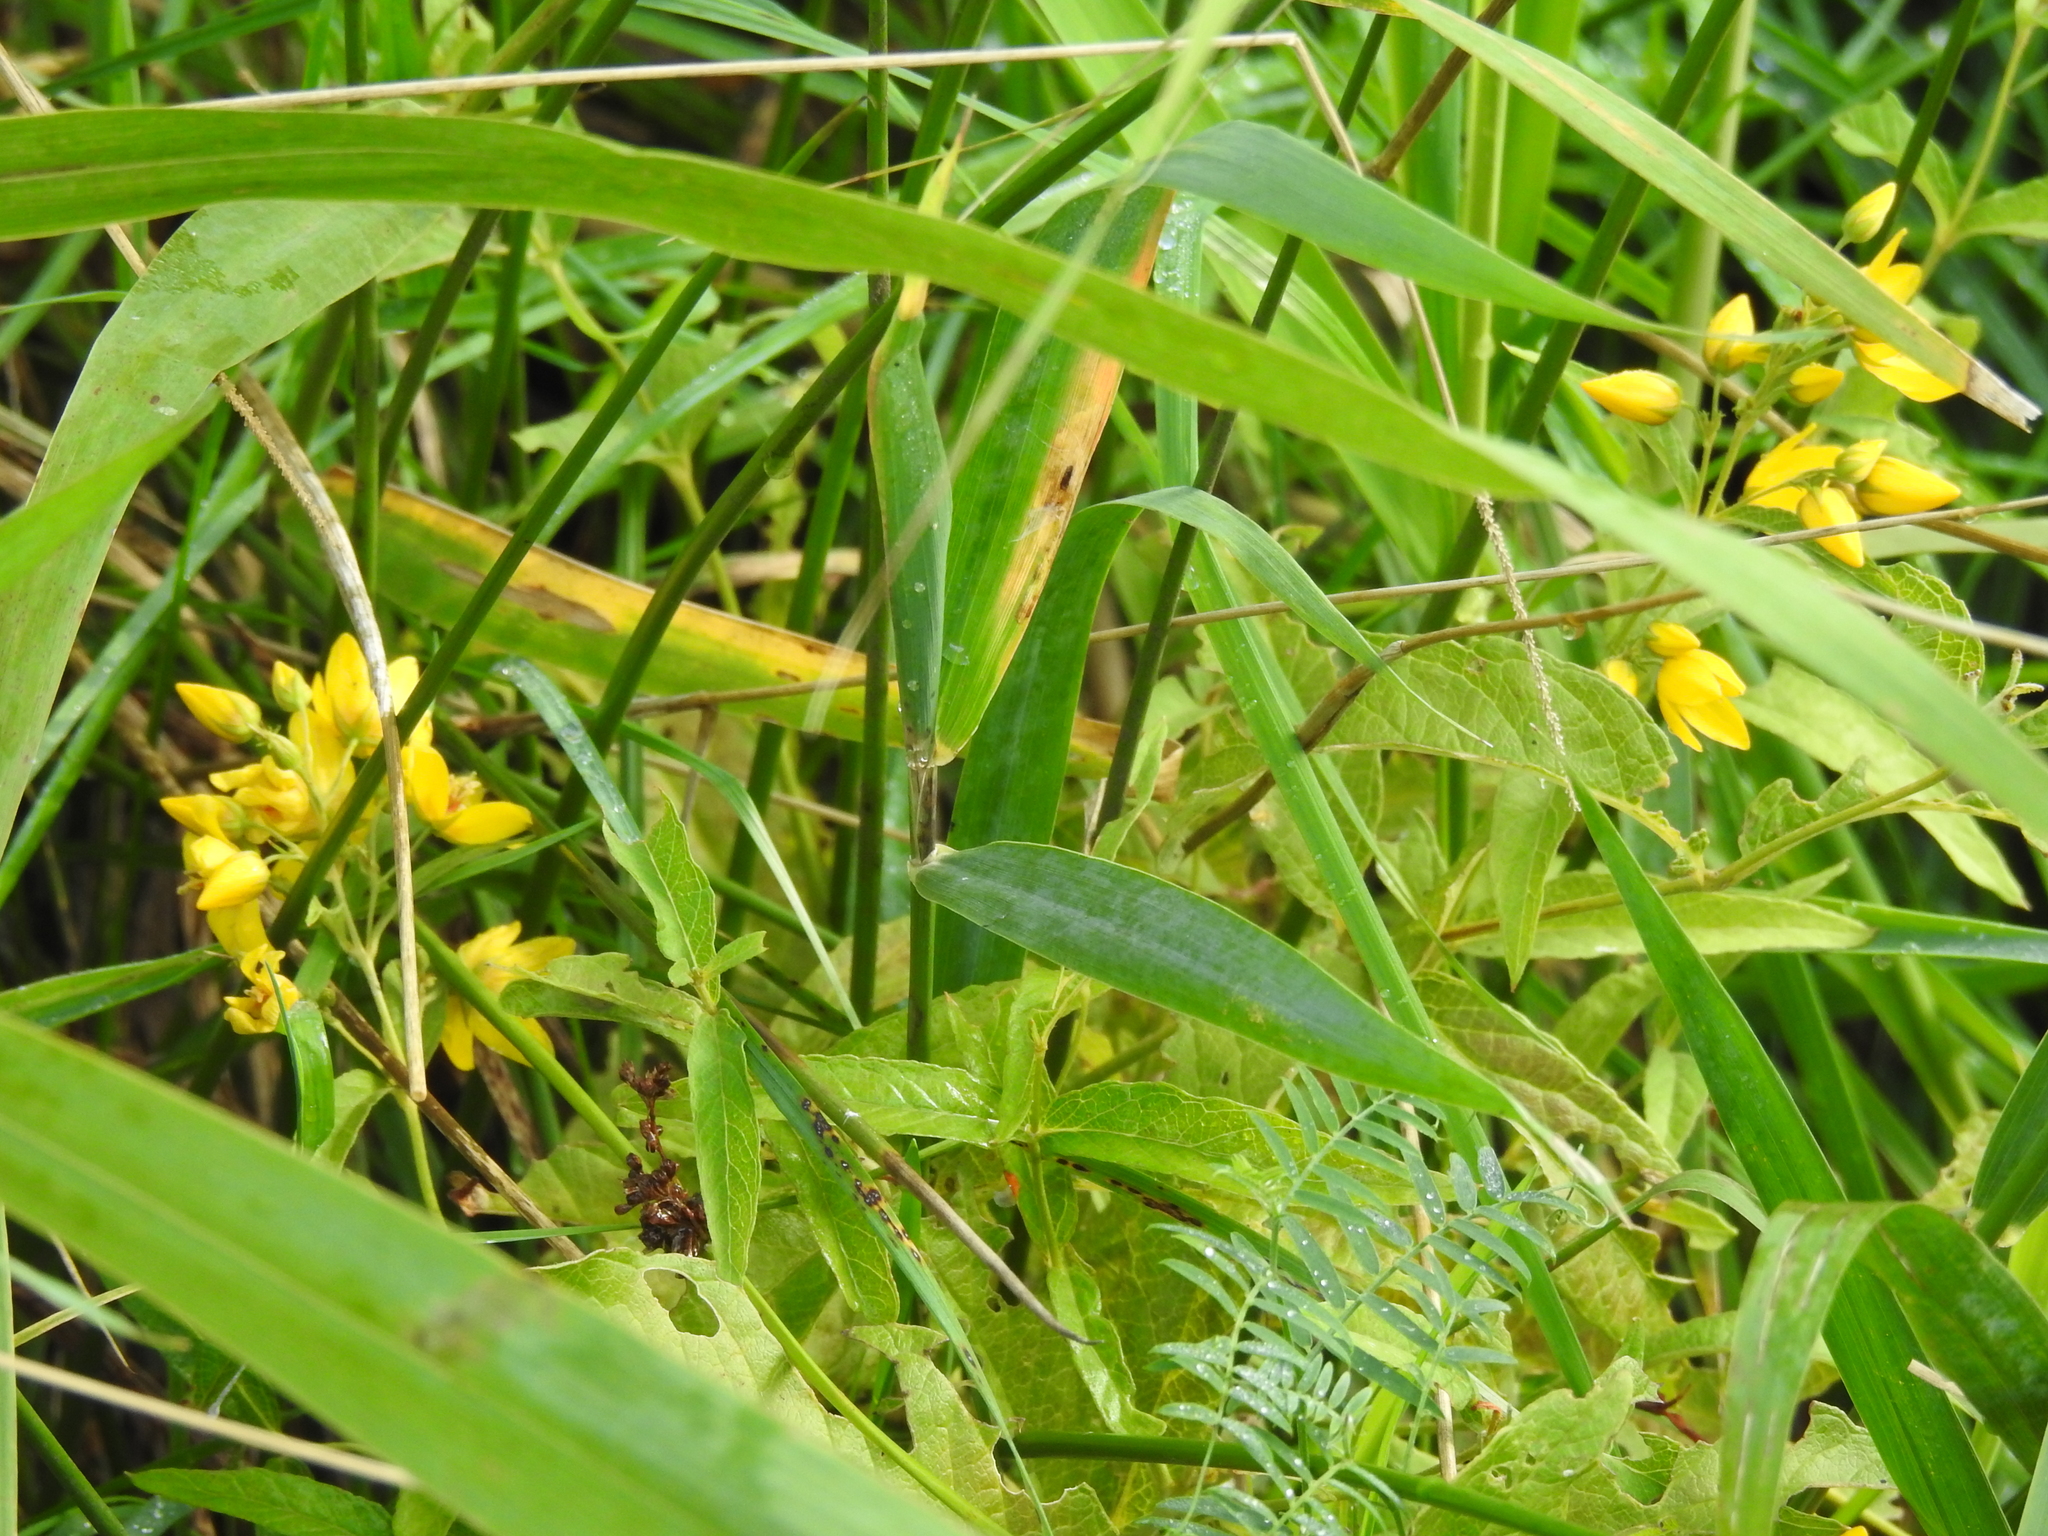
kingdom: Plantae
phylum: Tracheophyta
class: Magnoliopsida
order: Ericales
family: Primulaceae
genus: Lysimachia
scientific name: Lysimachia vulgaris
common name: Yellow loosestrife
